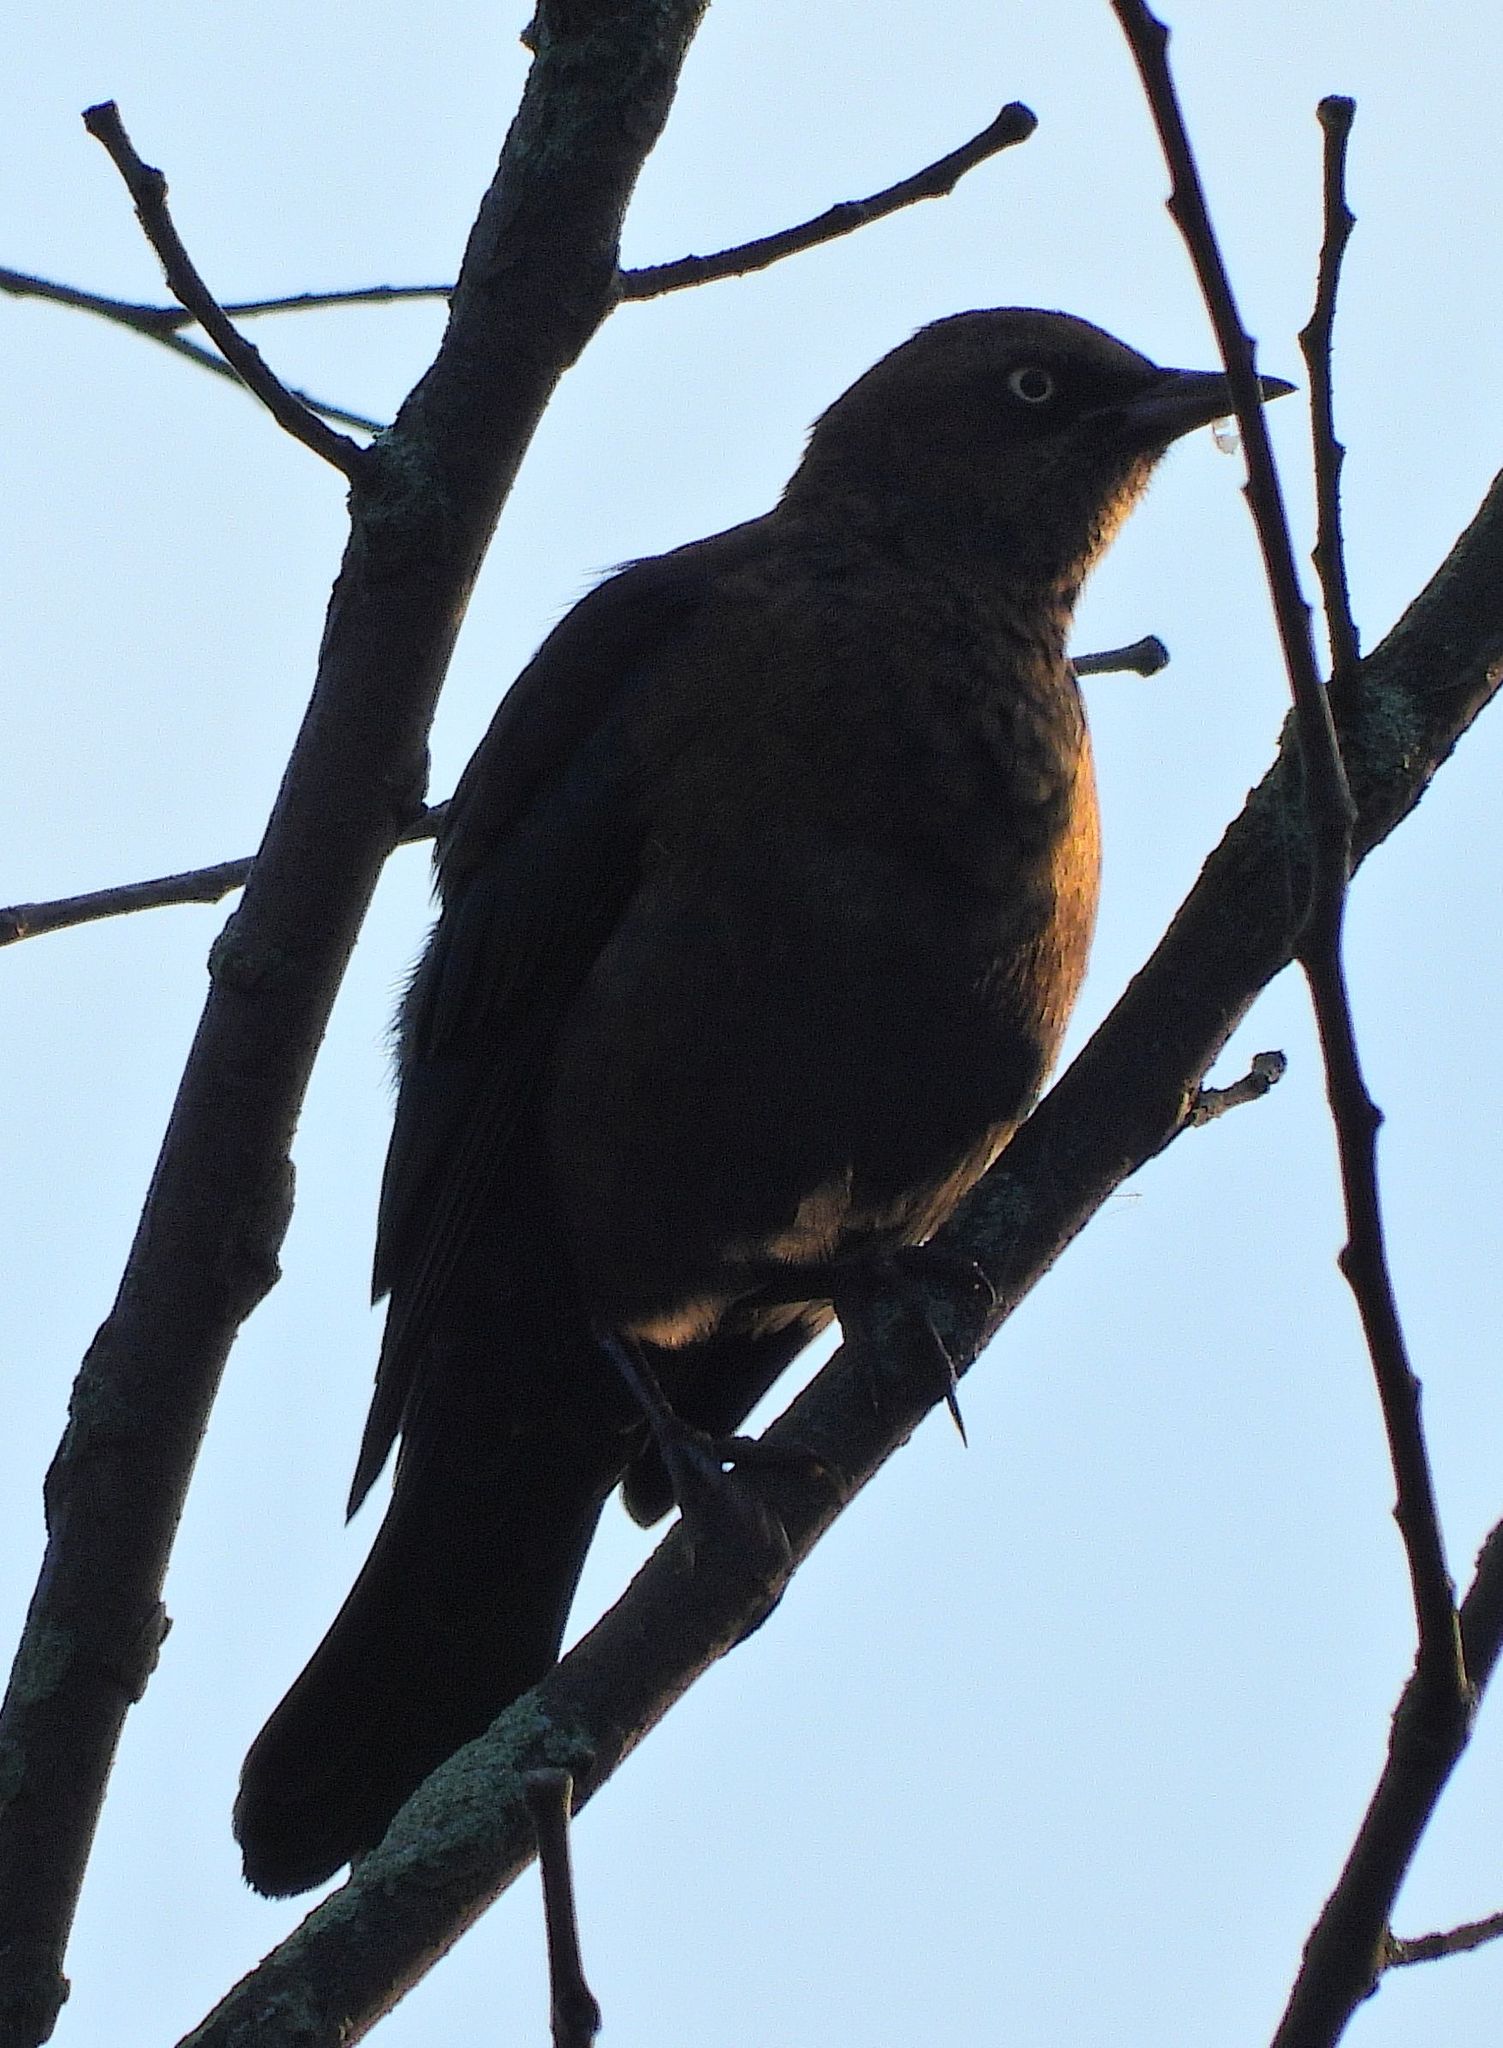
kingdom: Animalia
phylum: Chordata
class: Aves
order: Passeriformes
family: Icteridae
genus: Euphagus
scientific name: Euphagus carolinus
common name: Rusty blackbird
